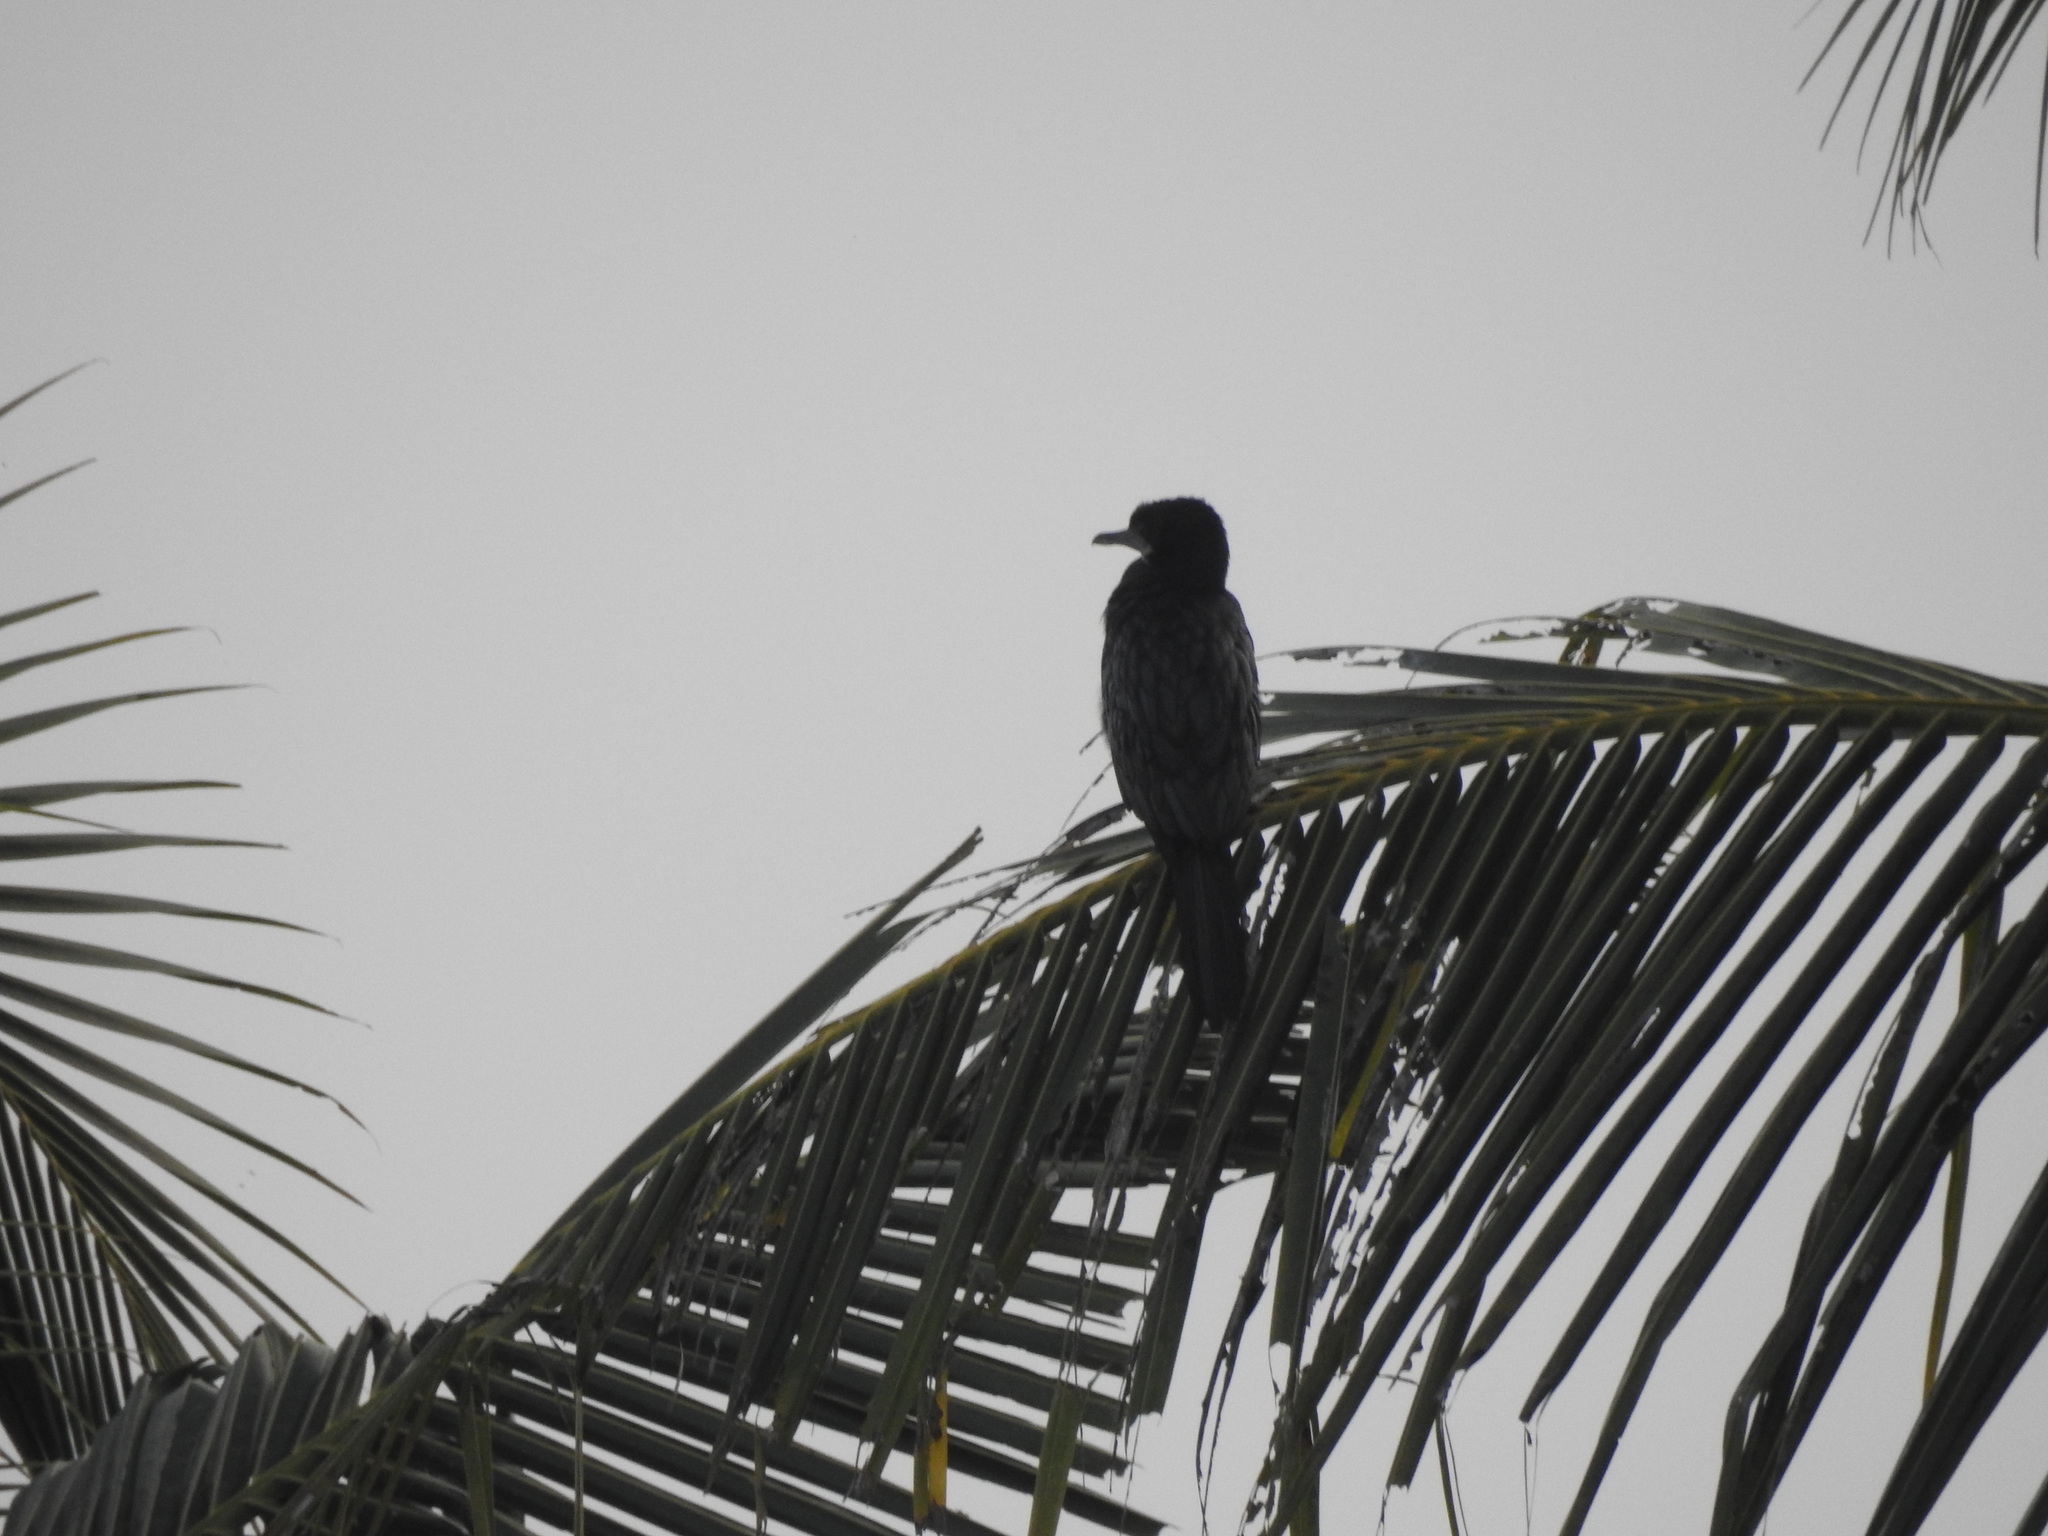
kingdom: Animalia
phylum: Chordata
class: Aves
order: Suliformes
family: Phalacrocoracidae
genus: Microcarbo
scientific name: Microcarbo niger
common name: Little cormorant
